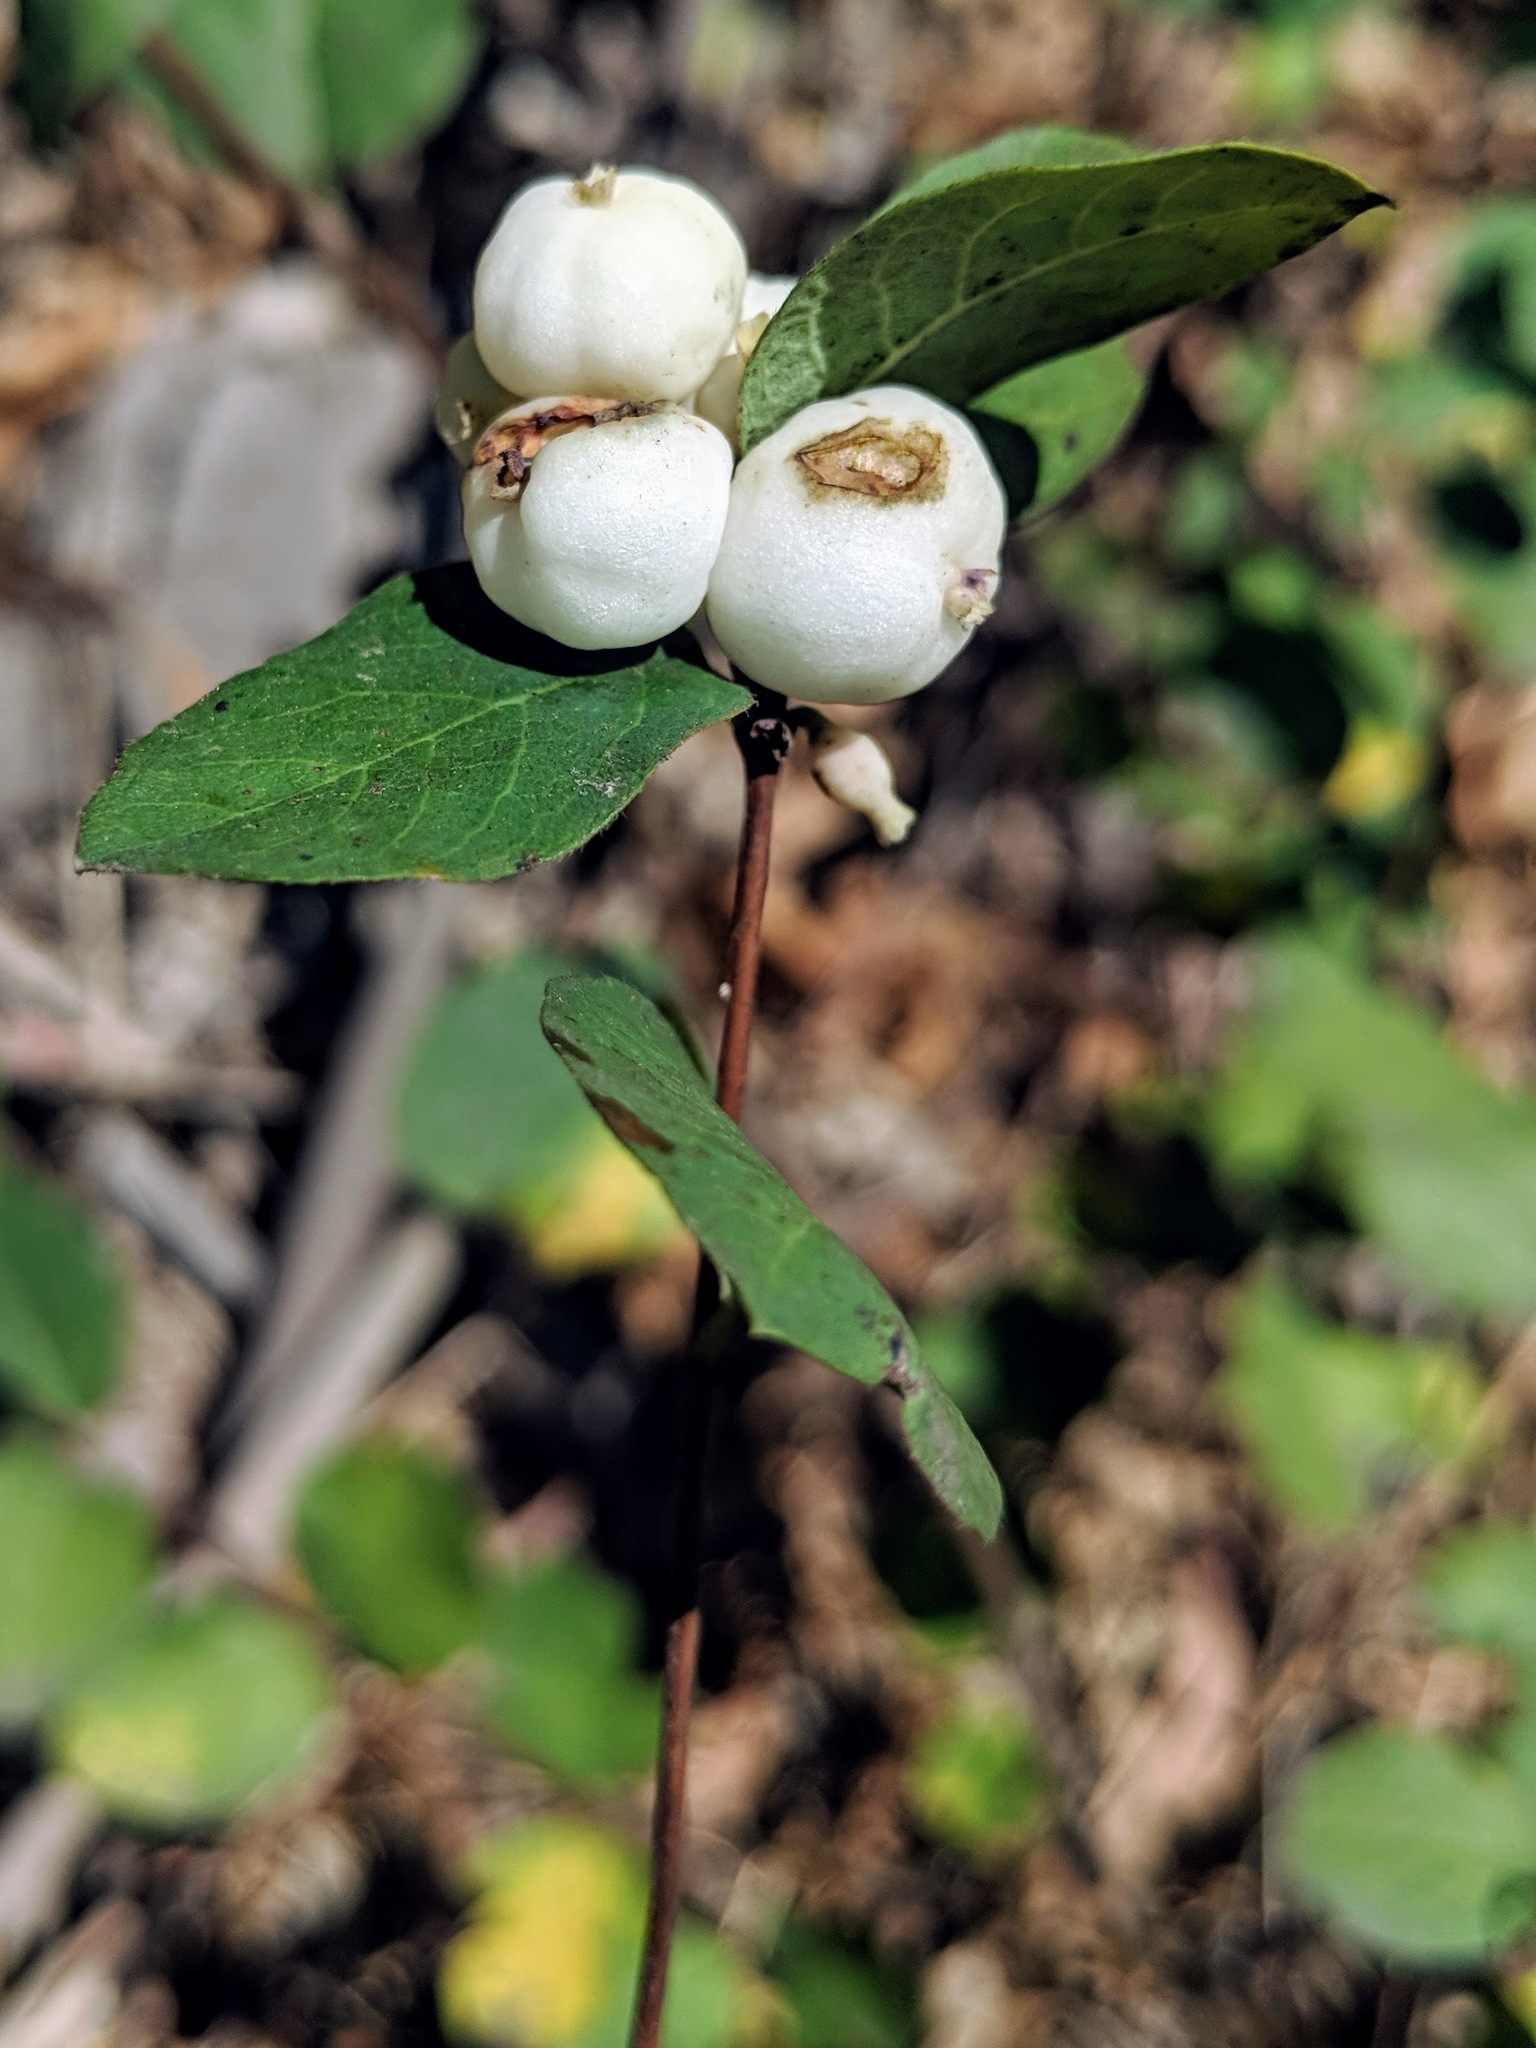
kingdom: Plantae
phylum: Tracheophyta
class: Magnoliopsida
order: Dipsacales
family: Caprifoliaceae
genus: Symphoricarpos
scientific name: Symphoricarpos albus
